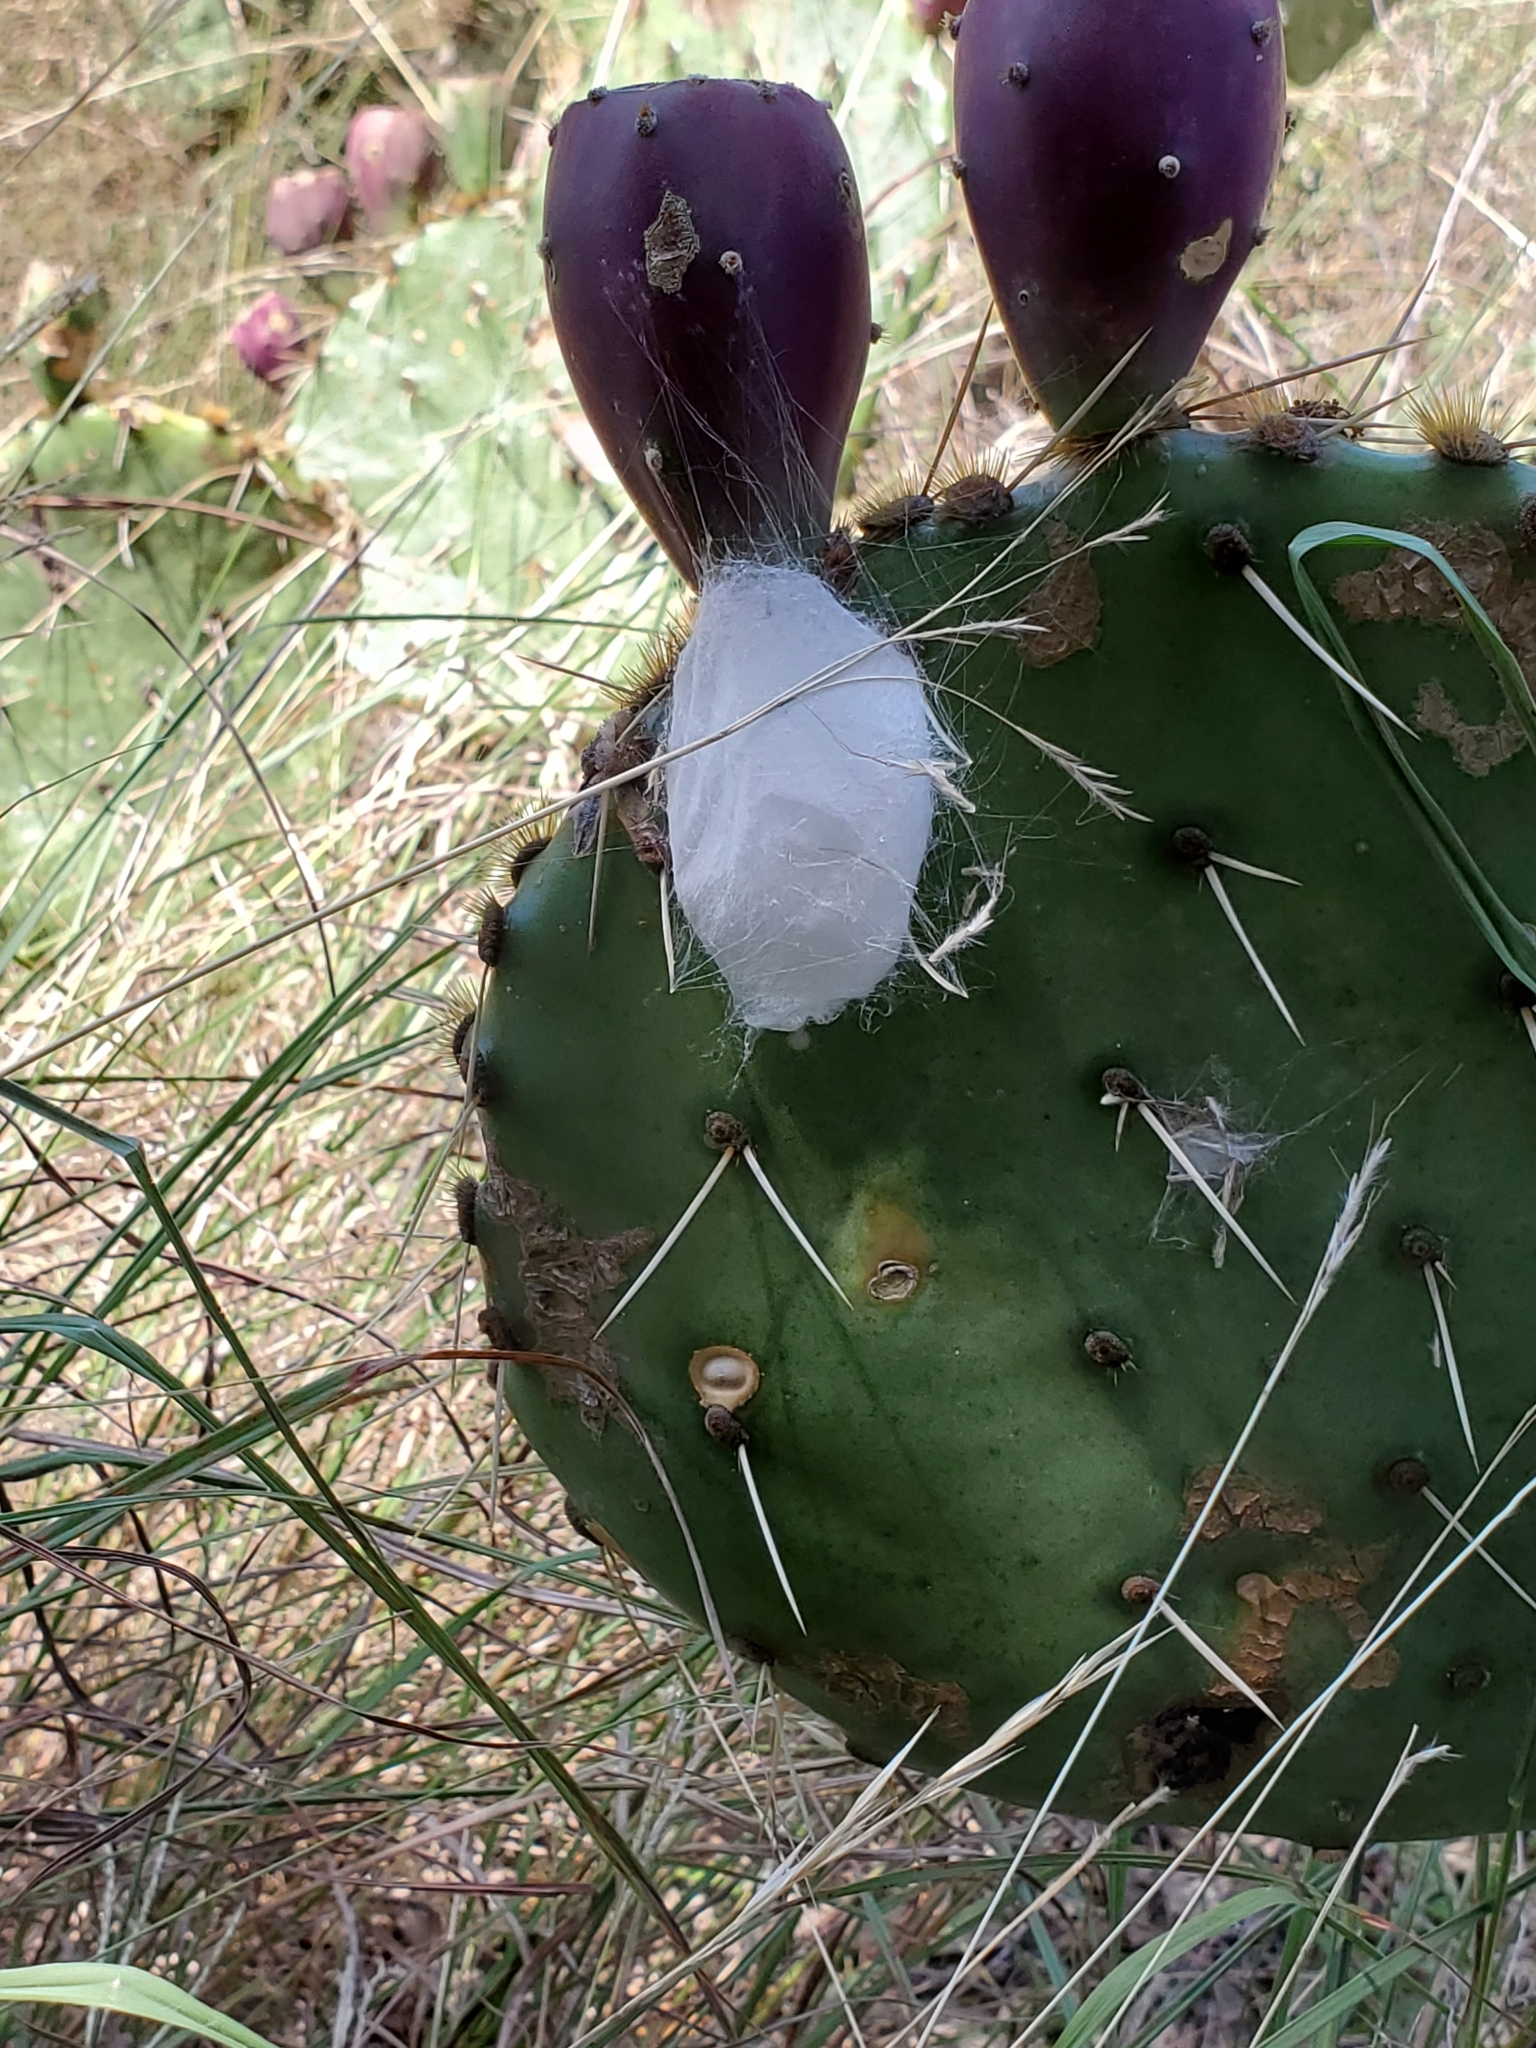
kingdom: Animalia
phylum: Arthropoda
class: Arachnida
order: Araneae
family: Salticidae
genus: Phidippus
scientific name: Phidippus texanus
